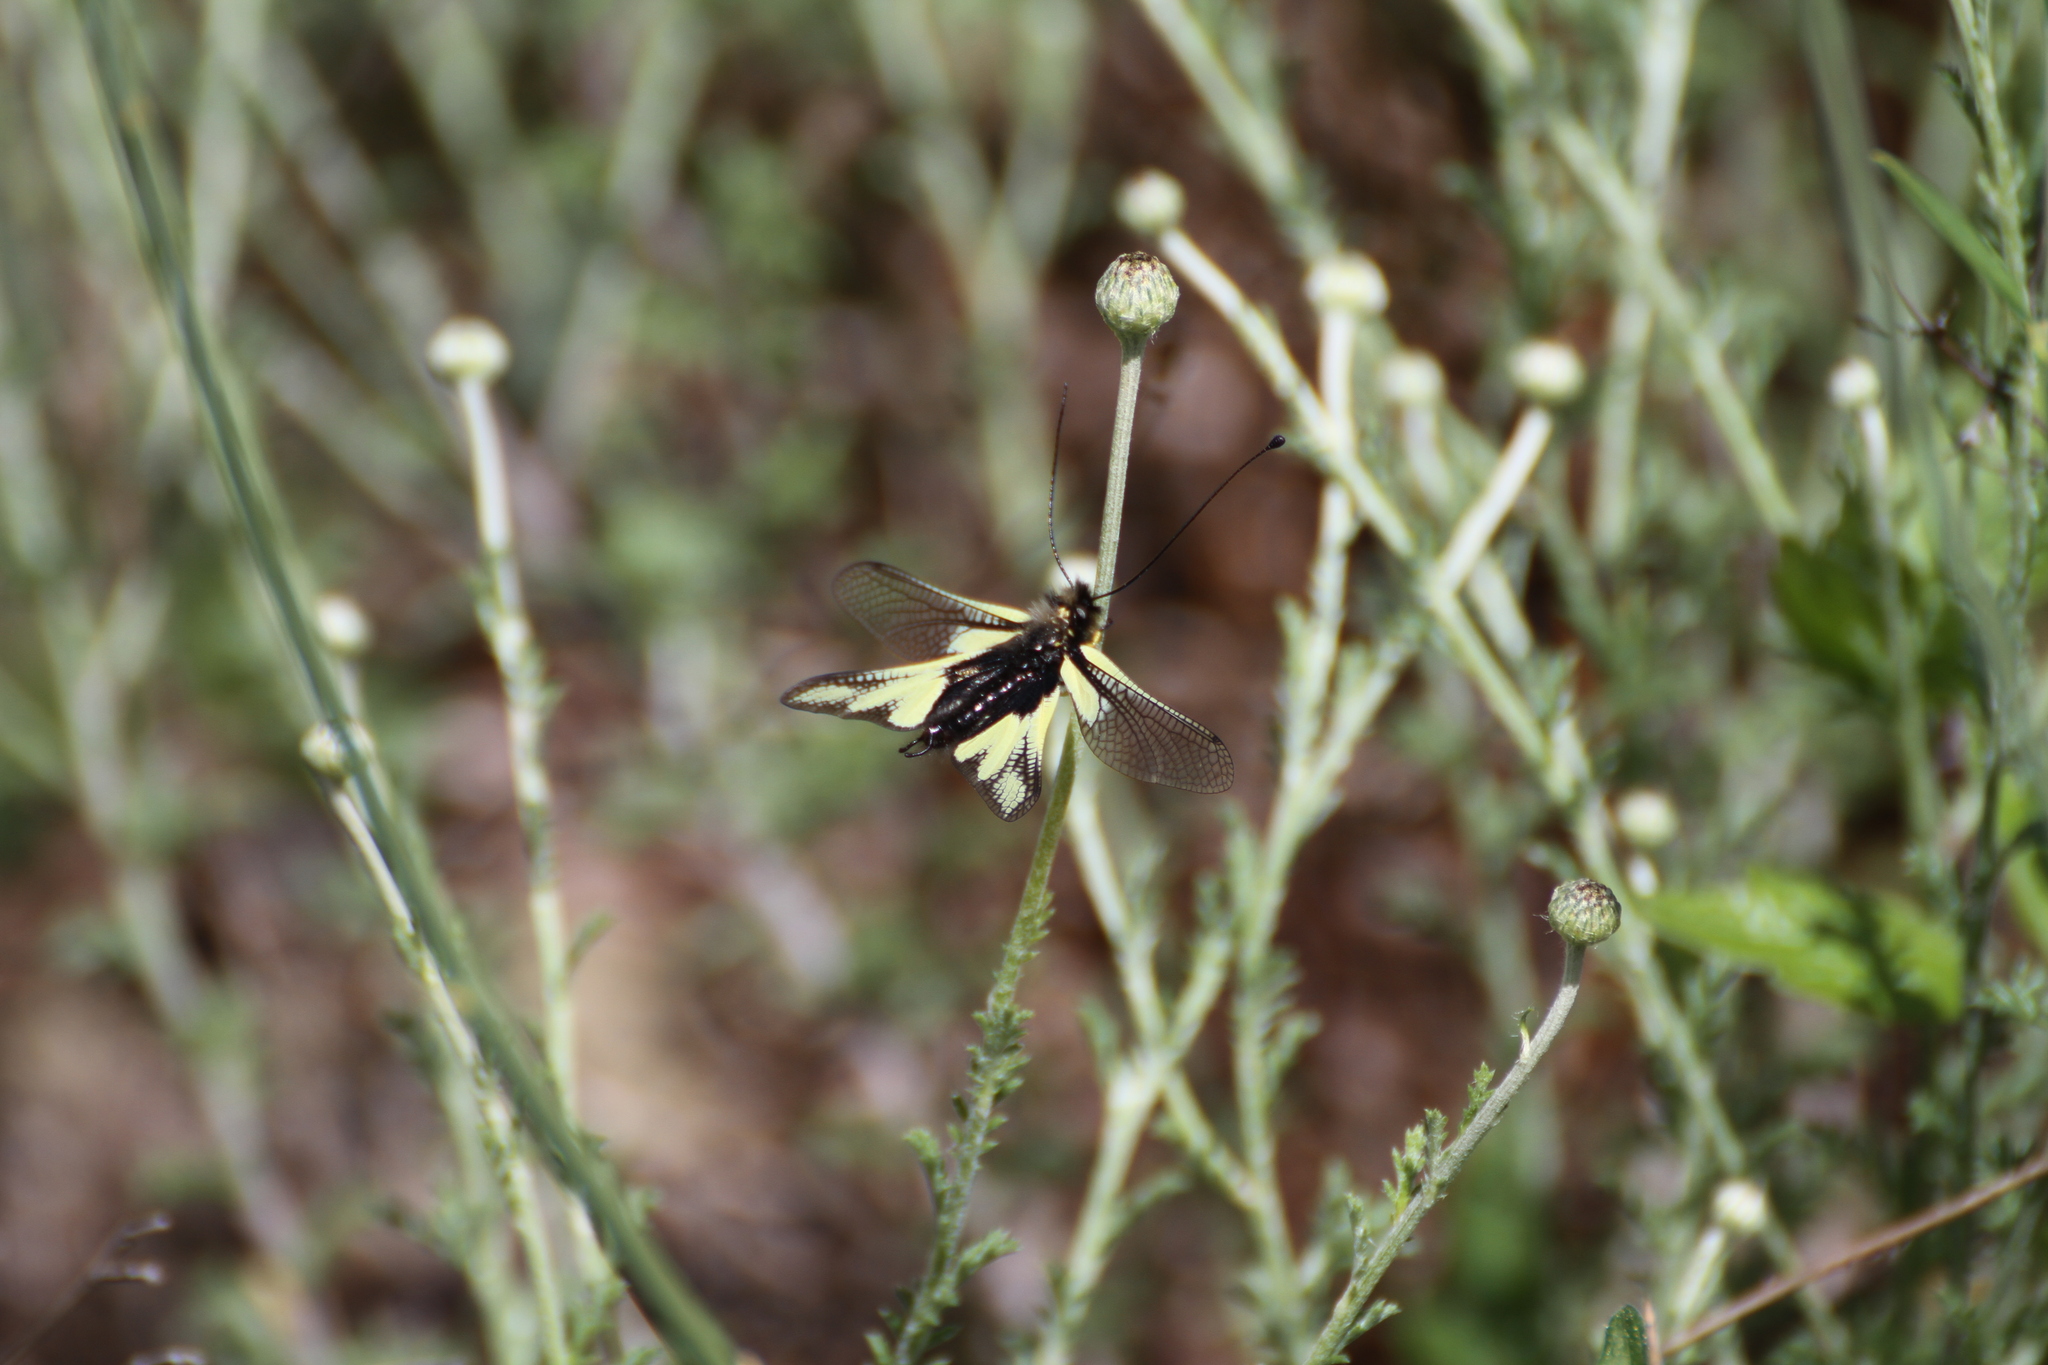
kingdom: Animalia
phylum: Arthropoda
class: Insecta
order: Neuroptera
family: Ascalaphidae
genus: Libelloides
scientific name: Libelloides coccajus
